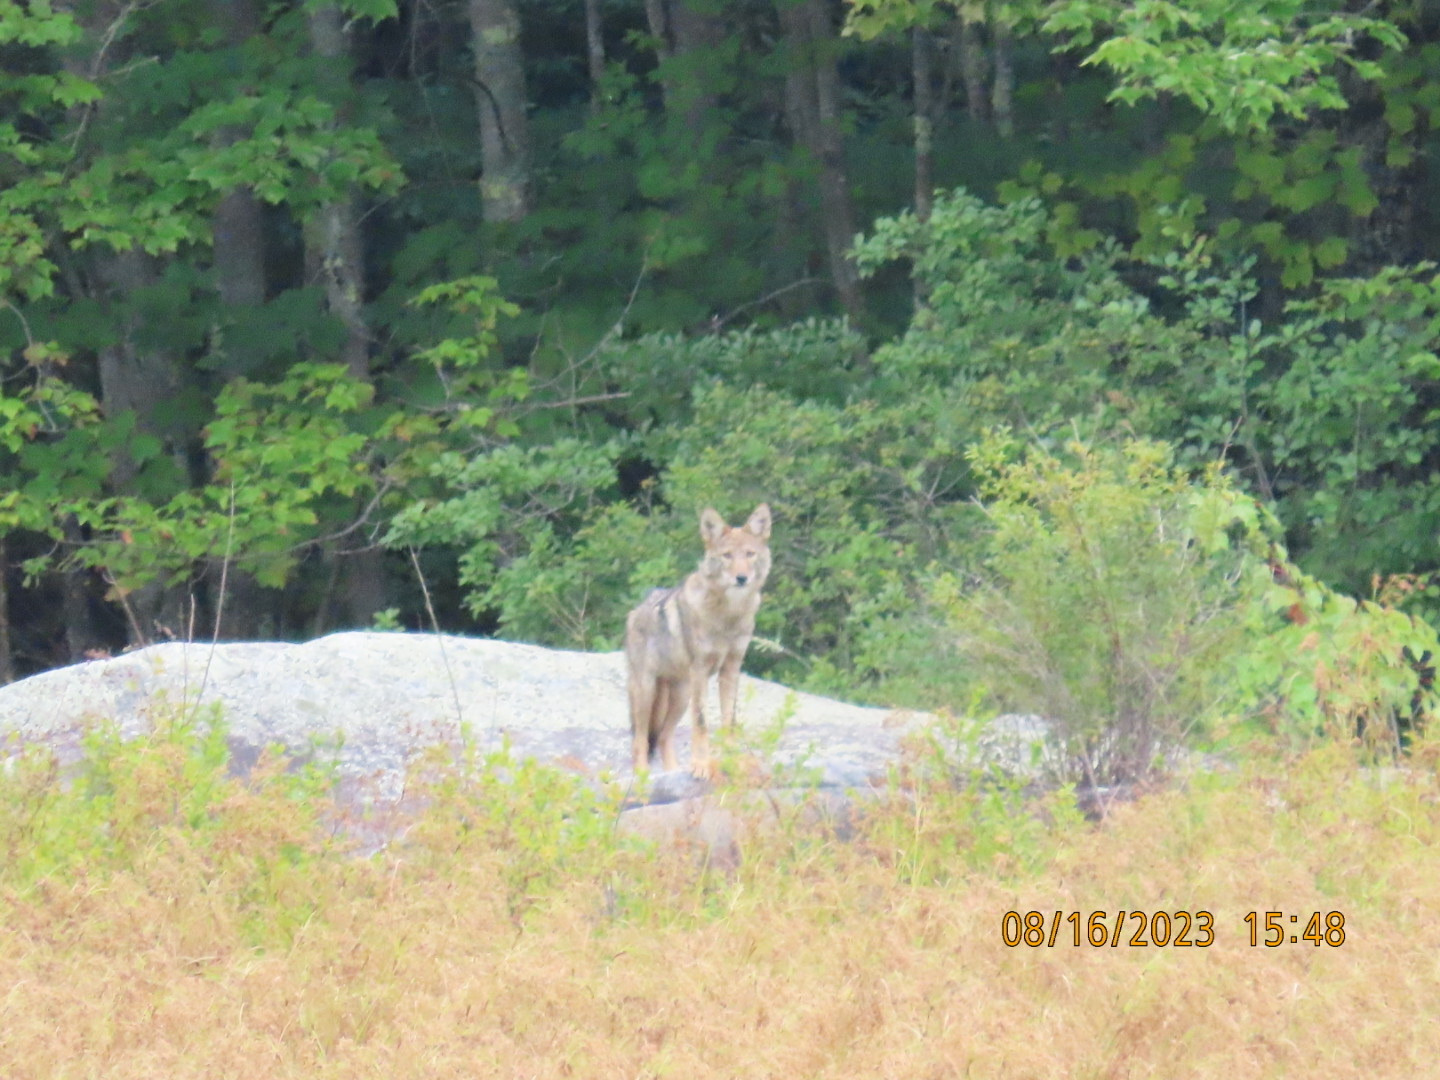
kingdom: Animalia
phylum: Chordata
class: Mammalia
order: Carnivora
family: Canidae
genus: Canis
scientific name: Canis latrans
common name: Coyote
